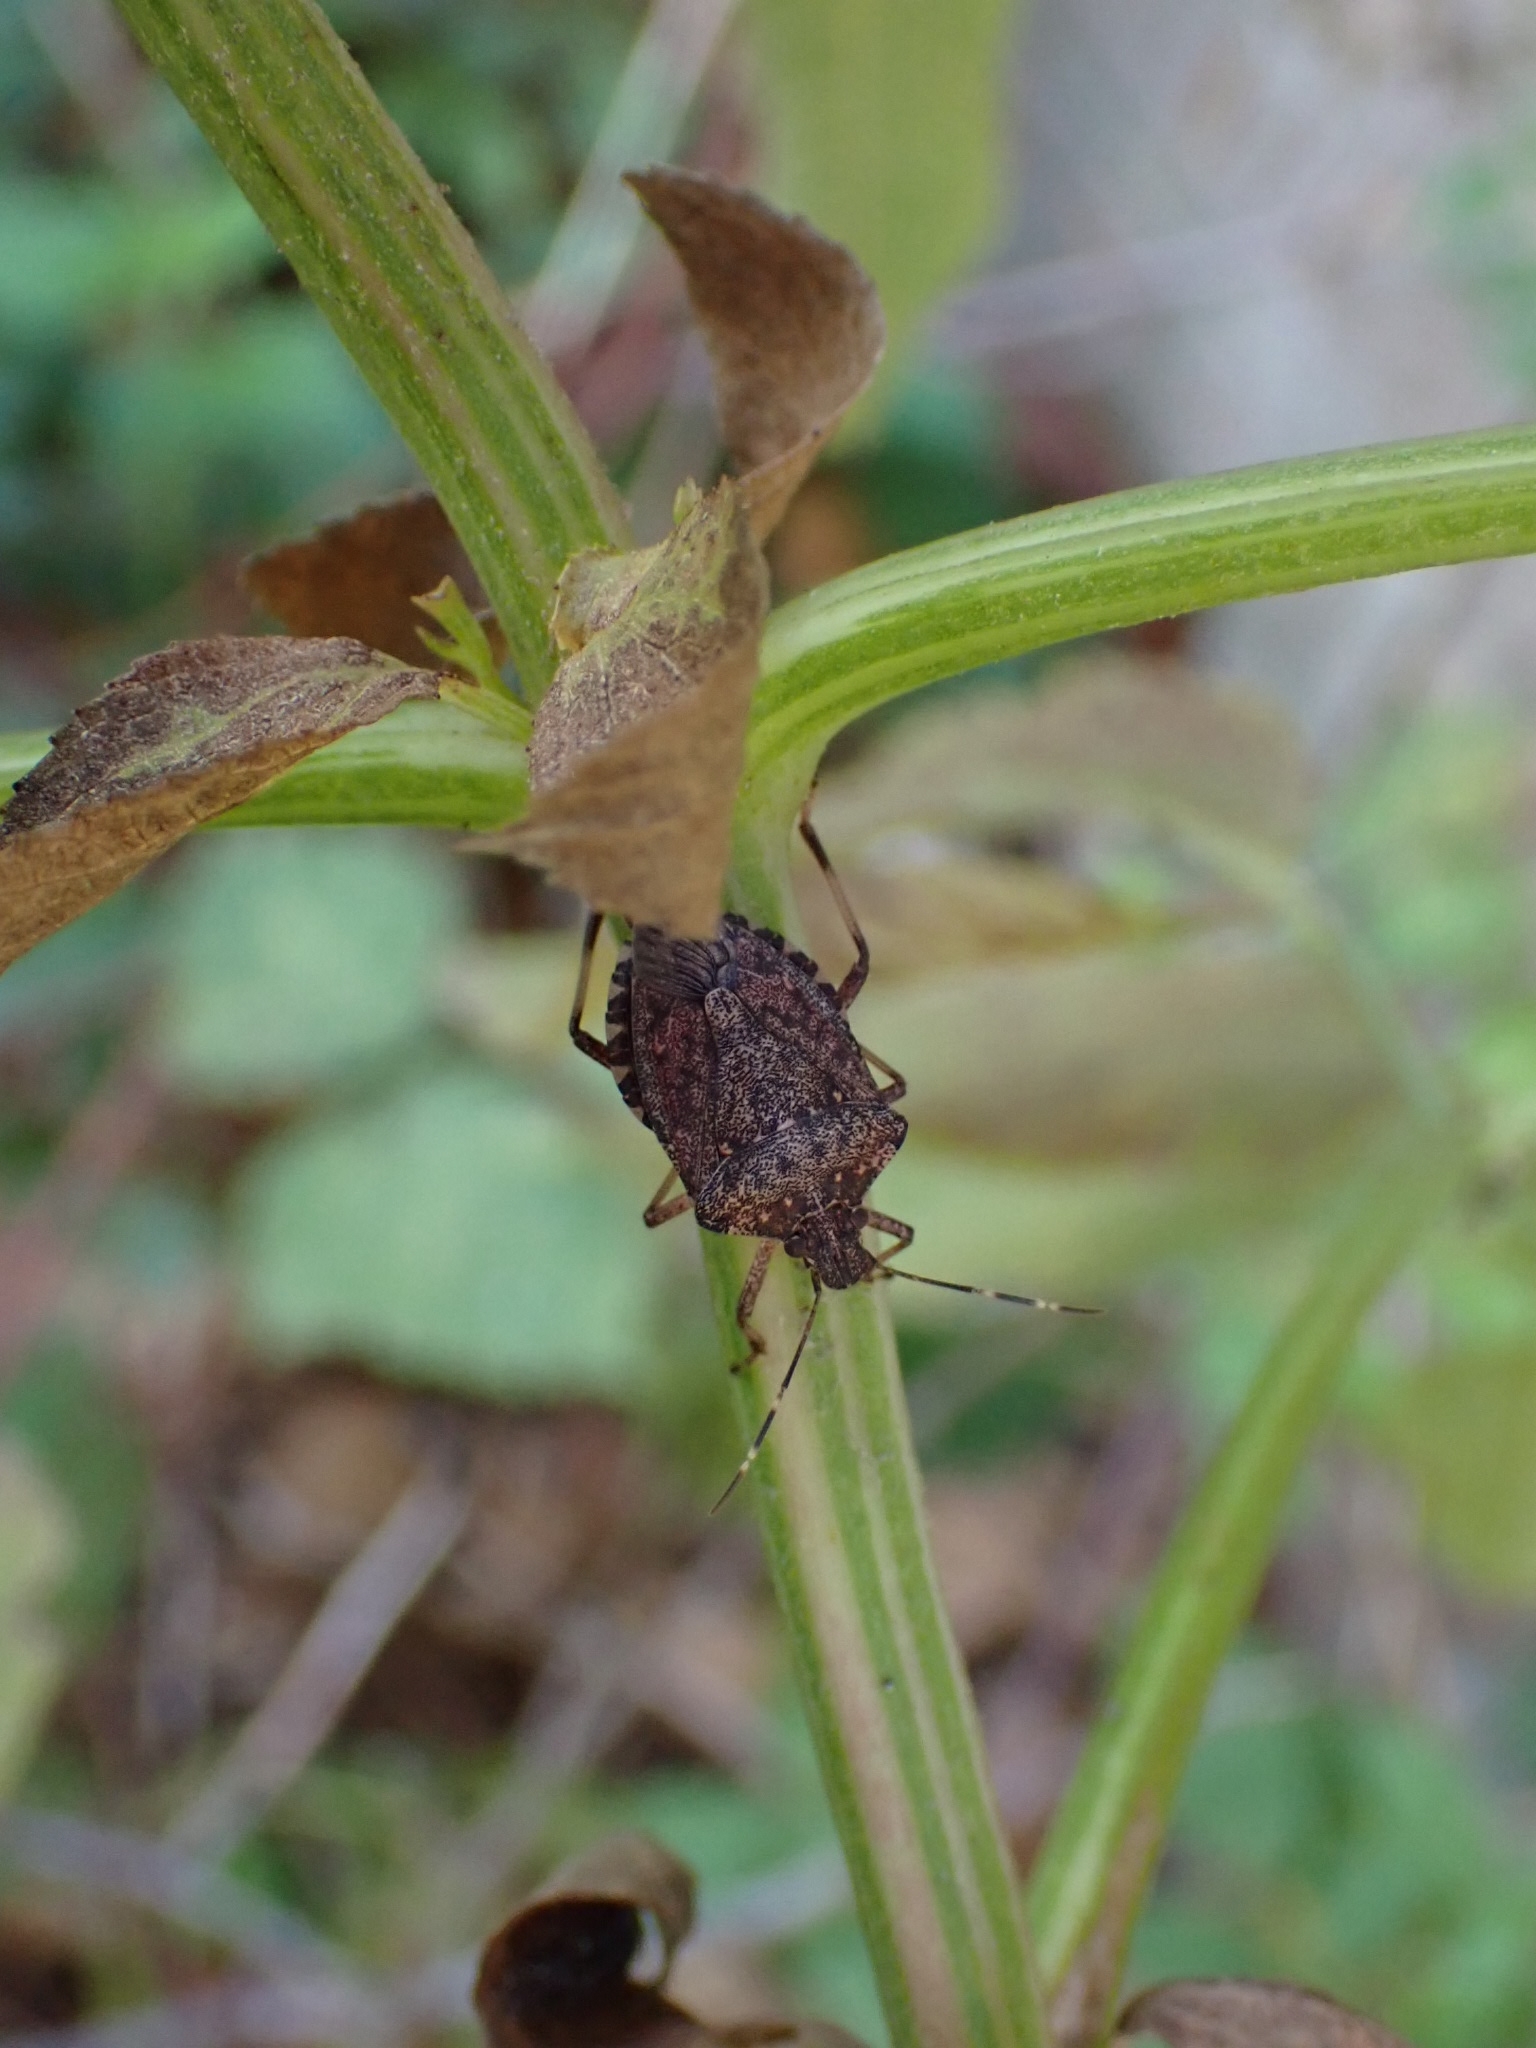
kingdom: Animalia
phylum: Arthropoda
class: Insecta
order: Hemiptera
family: Pentatomidae
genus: Halyomorpha
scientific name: Halyomorpha halys
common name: Brown marmorated stink bug
